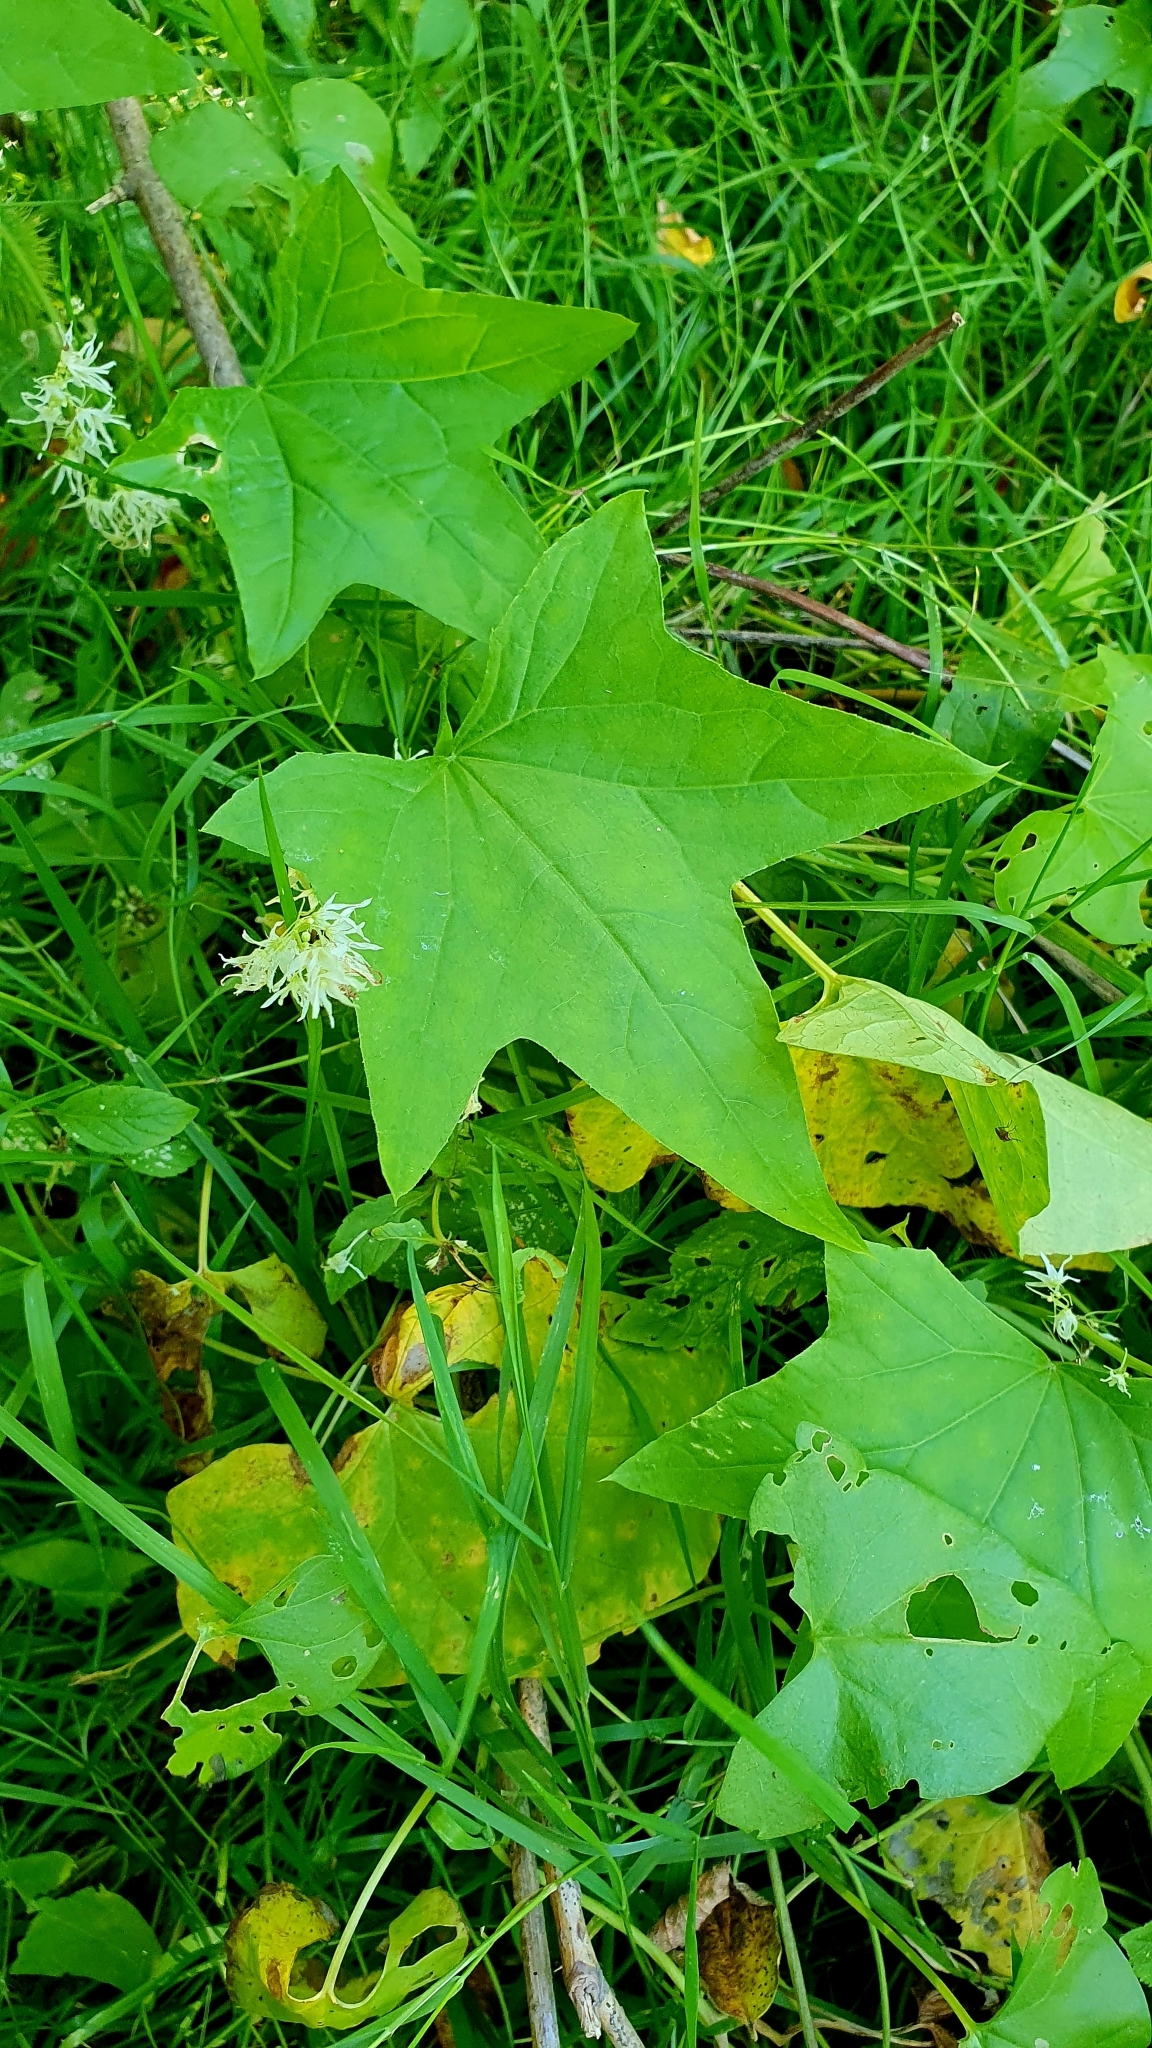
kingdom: Plantae
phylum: Tracheophyta
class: Magnoliopsida
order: Cucurbitales
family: Cucurbitaceae
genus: Echinocystis
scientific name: Echinocystis lobata
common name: Wild cucumber
